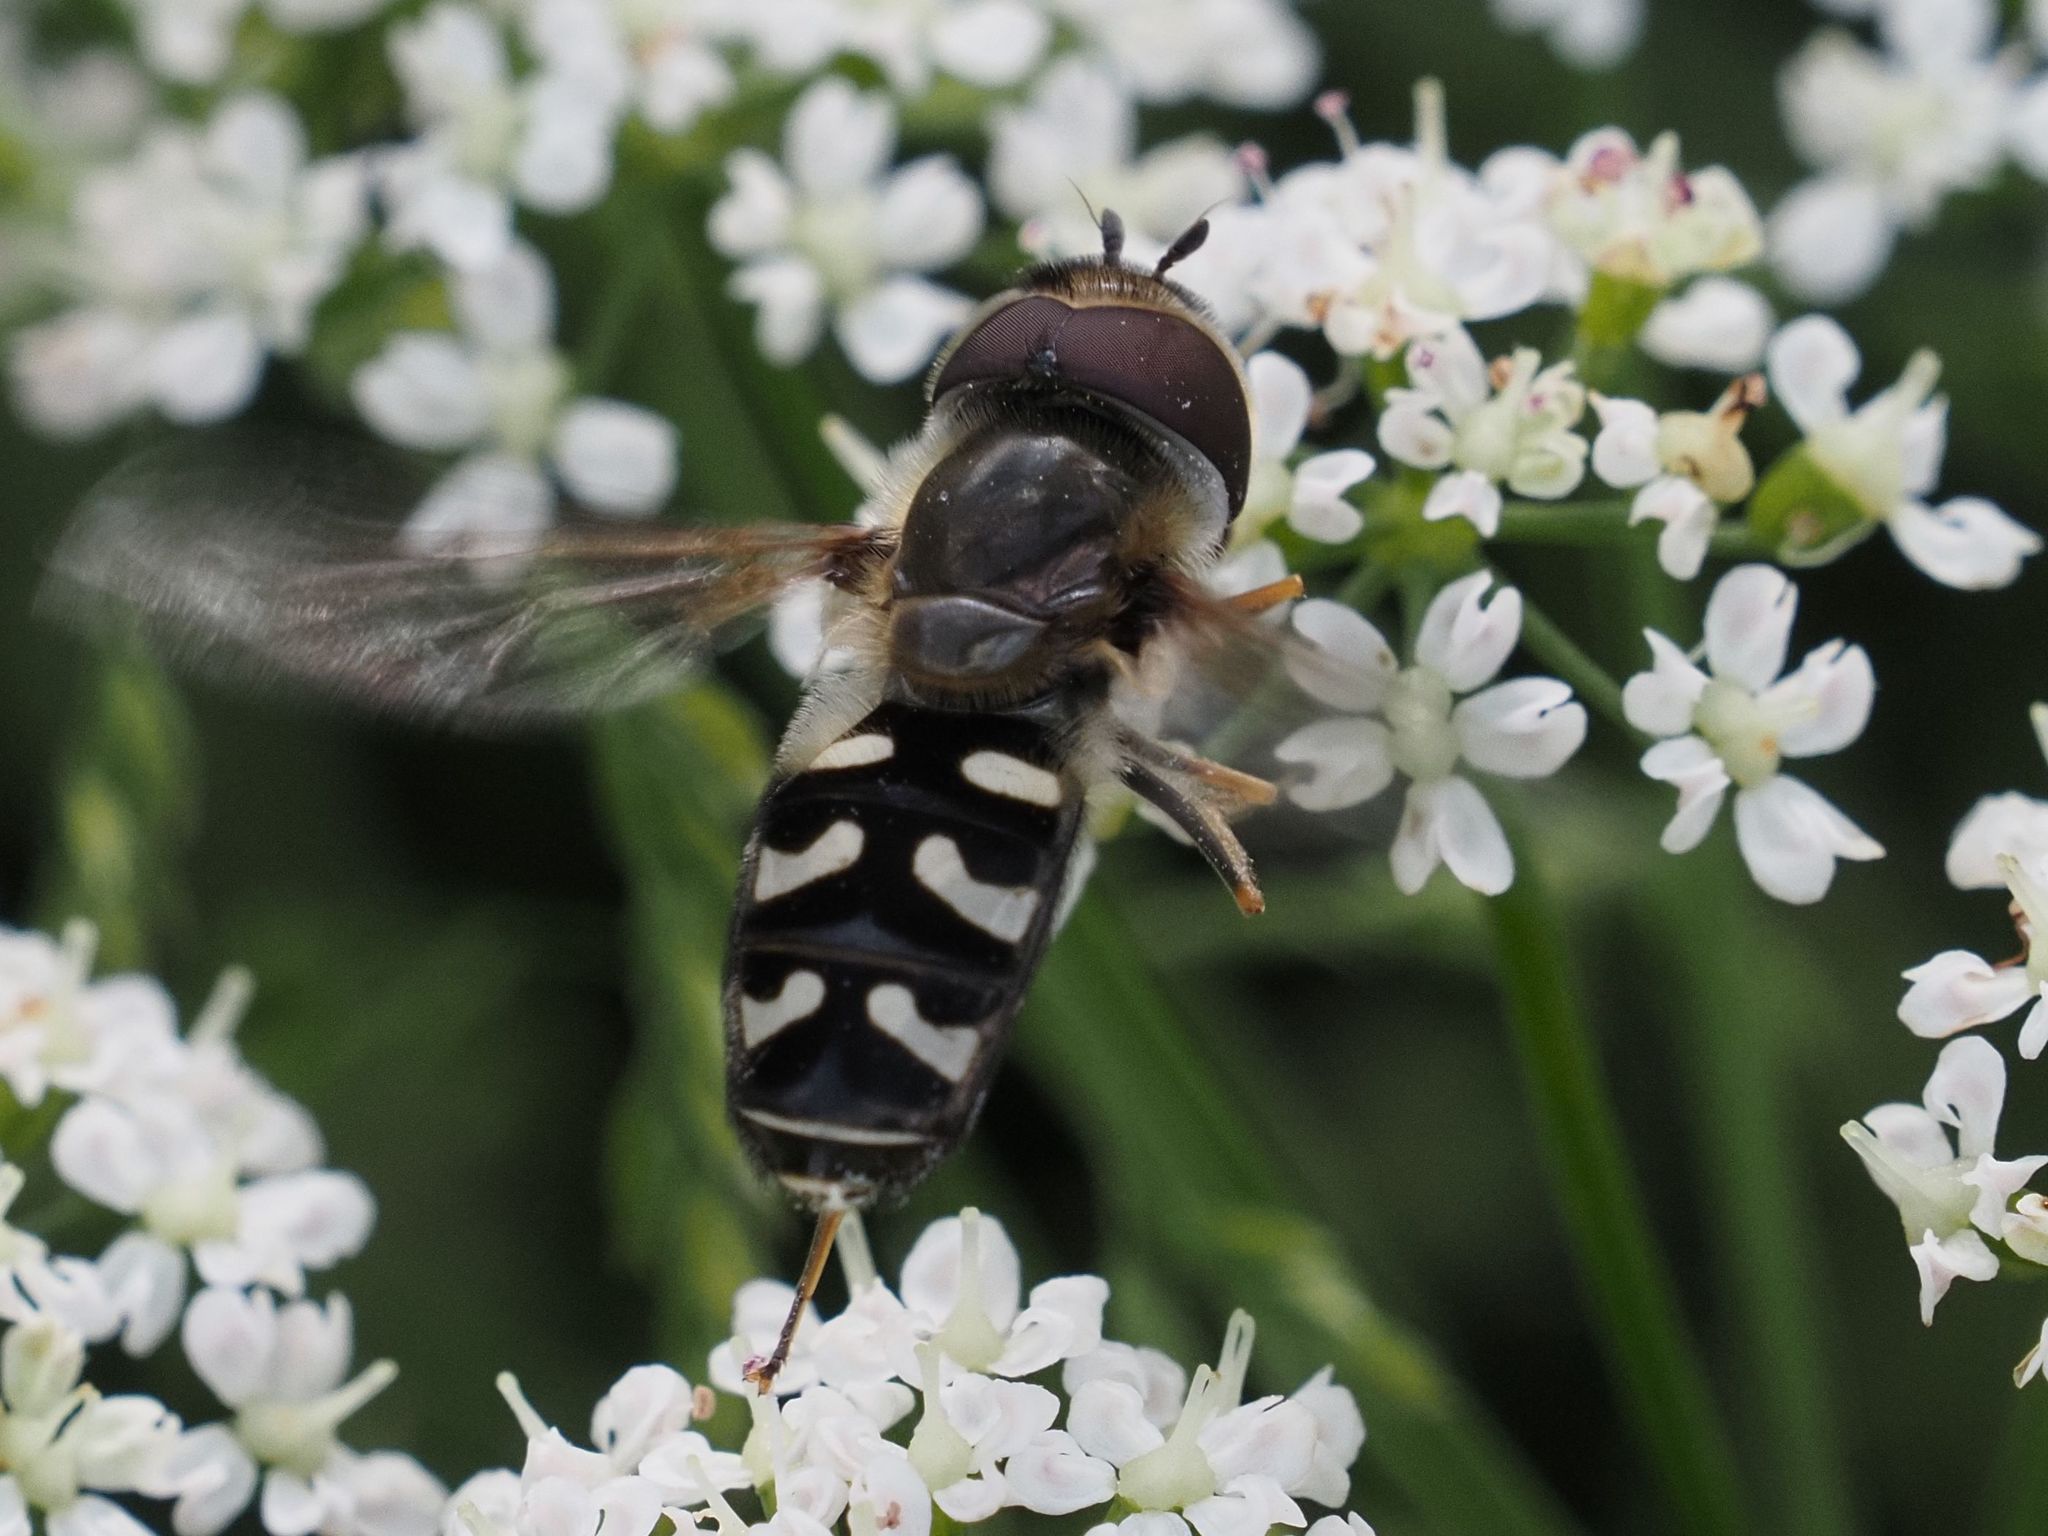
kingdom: Animalia
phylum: Arthropoda
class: Insecta
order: Diptera
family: Syrphidae
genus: Scaeva
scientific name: Scaeva pyrastri
